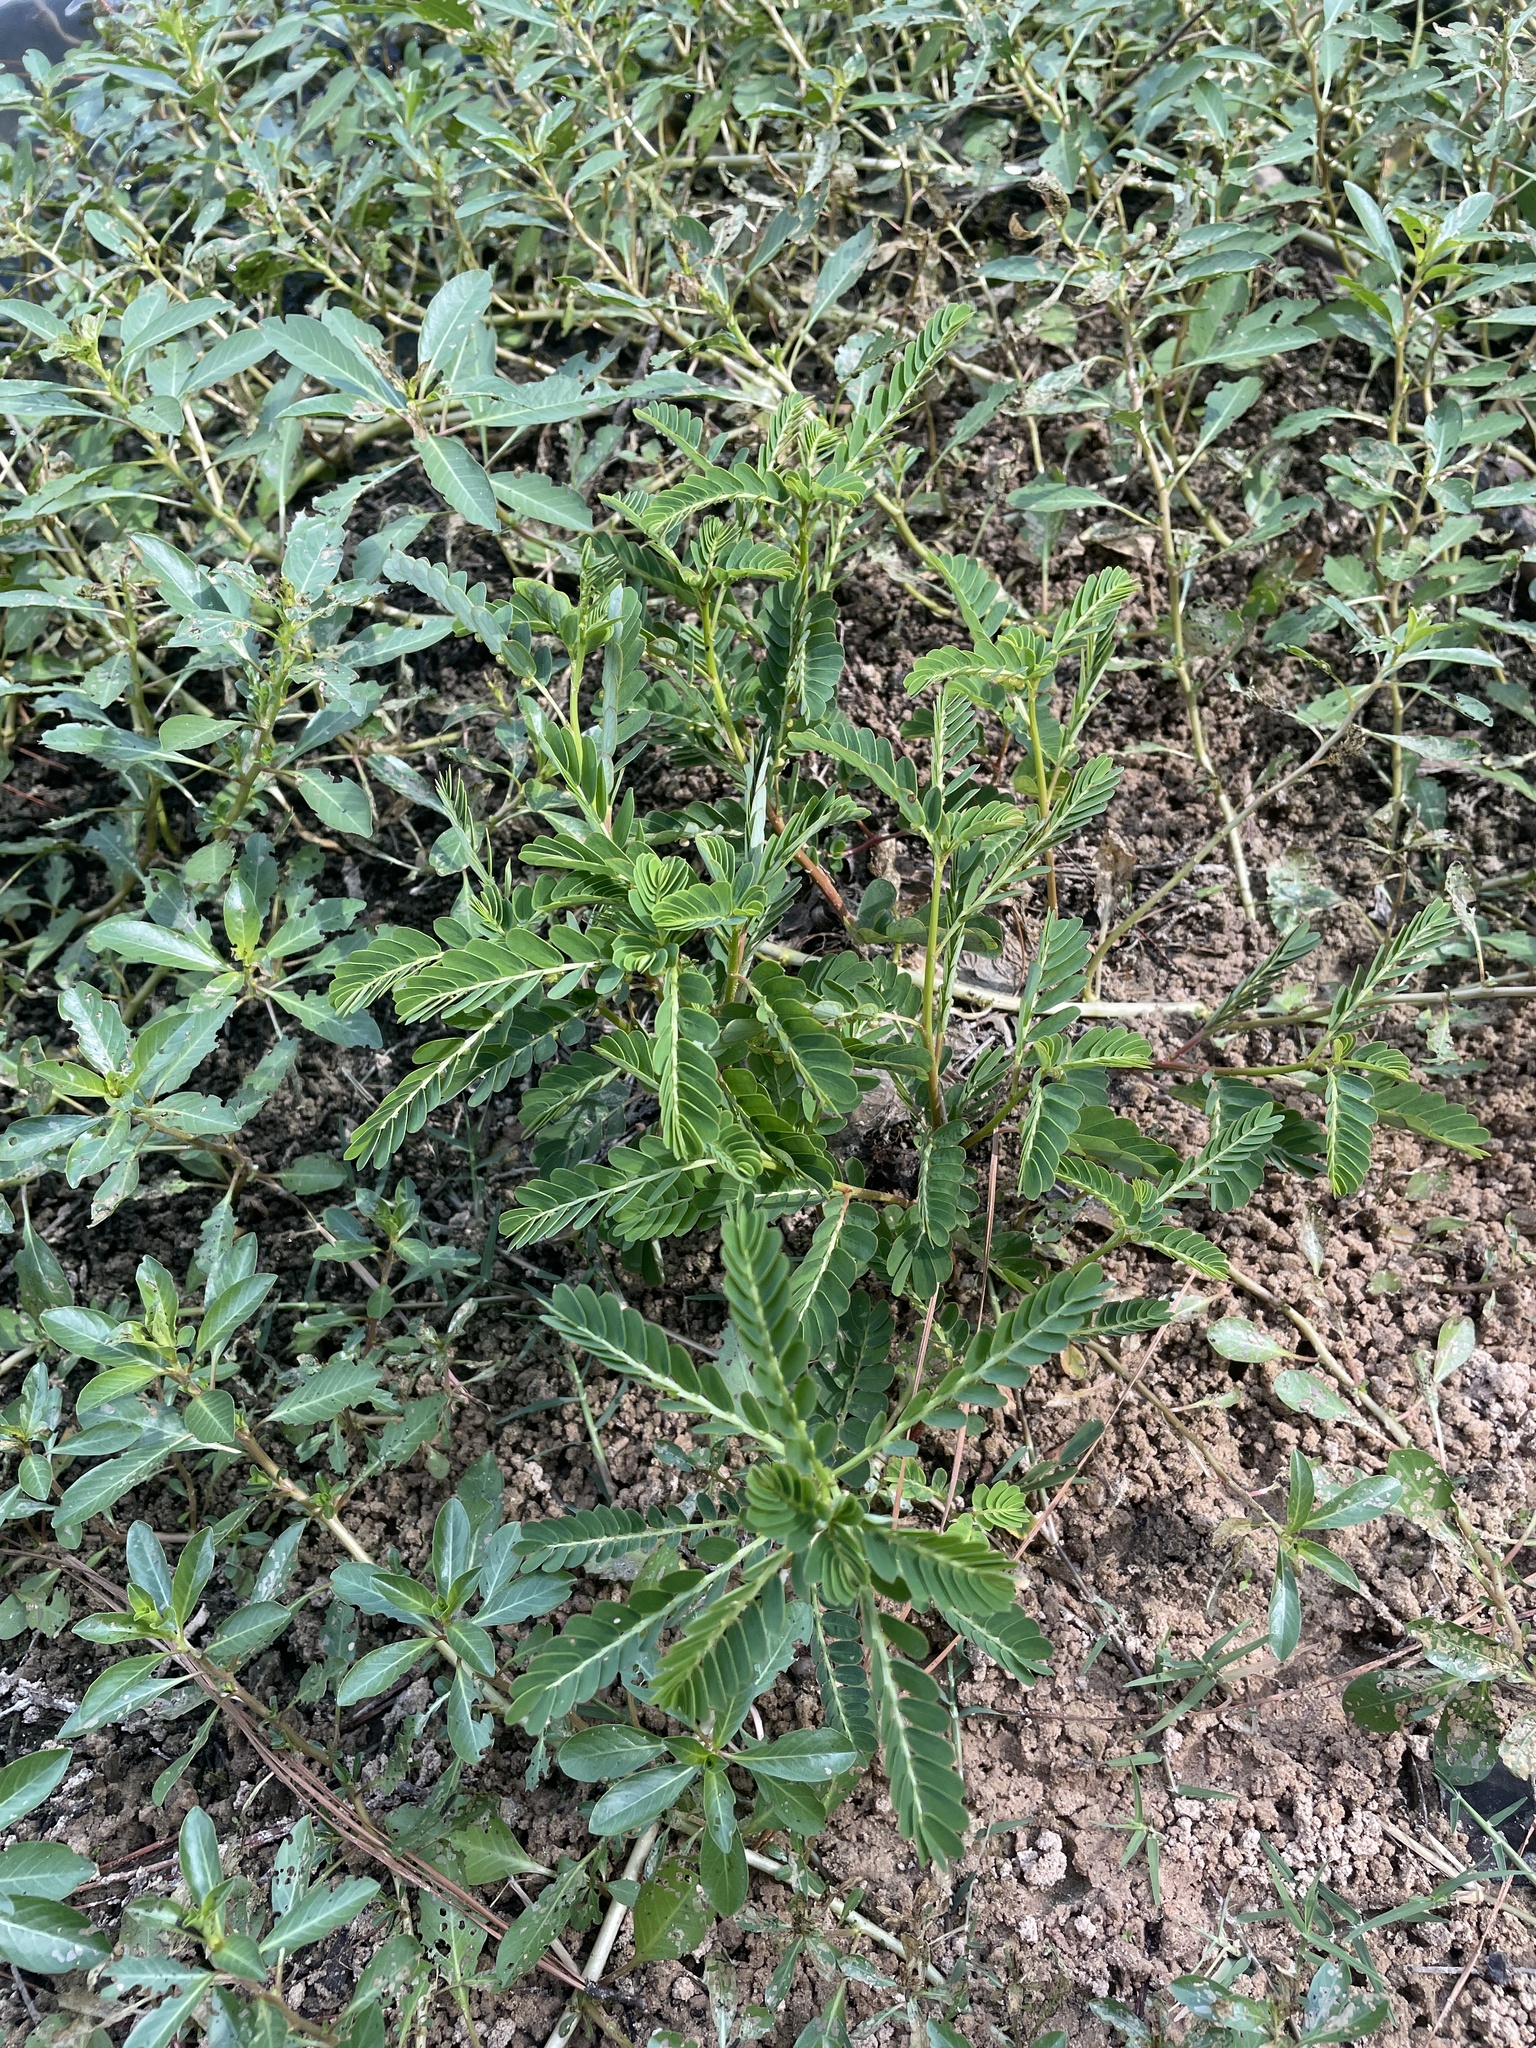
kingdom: Plantae
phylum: Tracheophyta
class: Magnoliopsida
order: Malpighiales
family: Phyllanthaceae
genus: Phyllanthus
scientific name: Phyllanthus urinaria
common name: Chamber bitter
